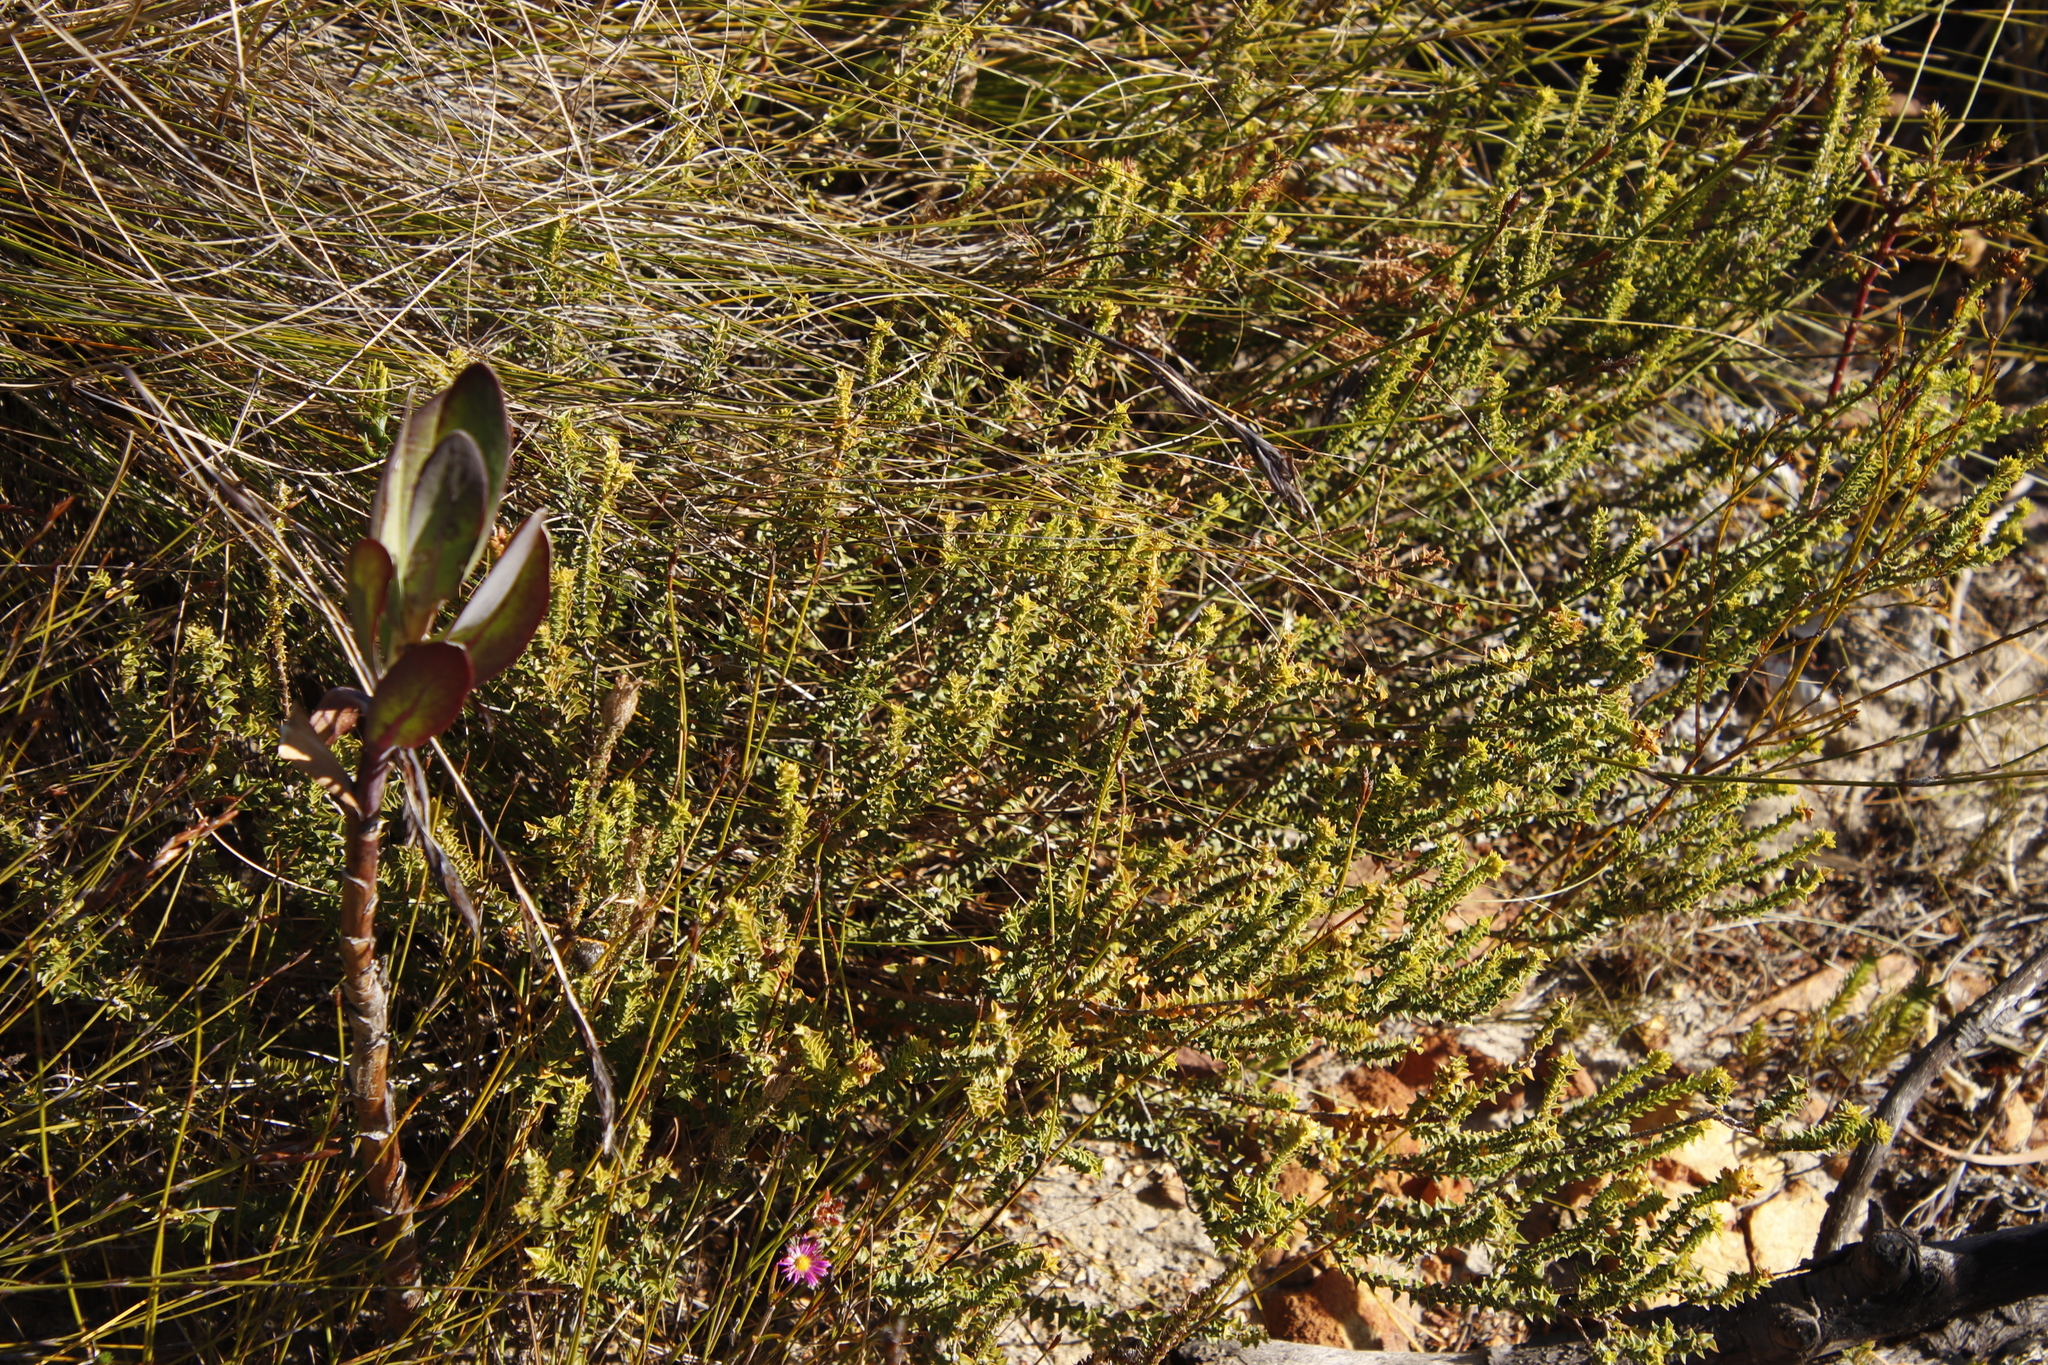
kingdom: Plantae
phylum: Tracheophyta
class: Magnoliopsida
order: Myrtales
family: Penaeaceae
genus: Penaea
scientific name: Penaea mucronata
